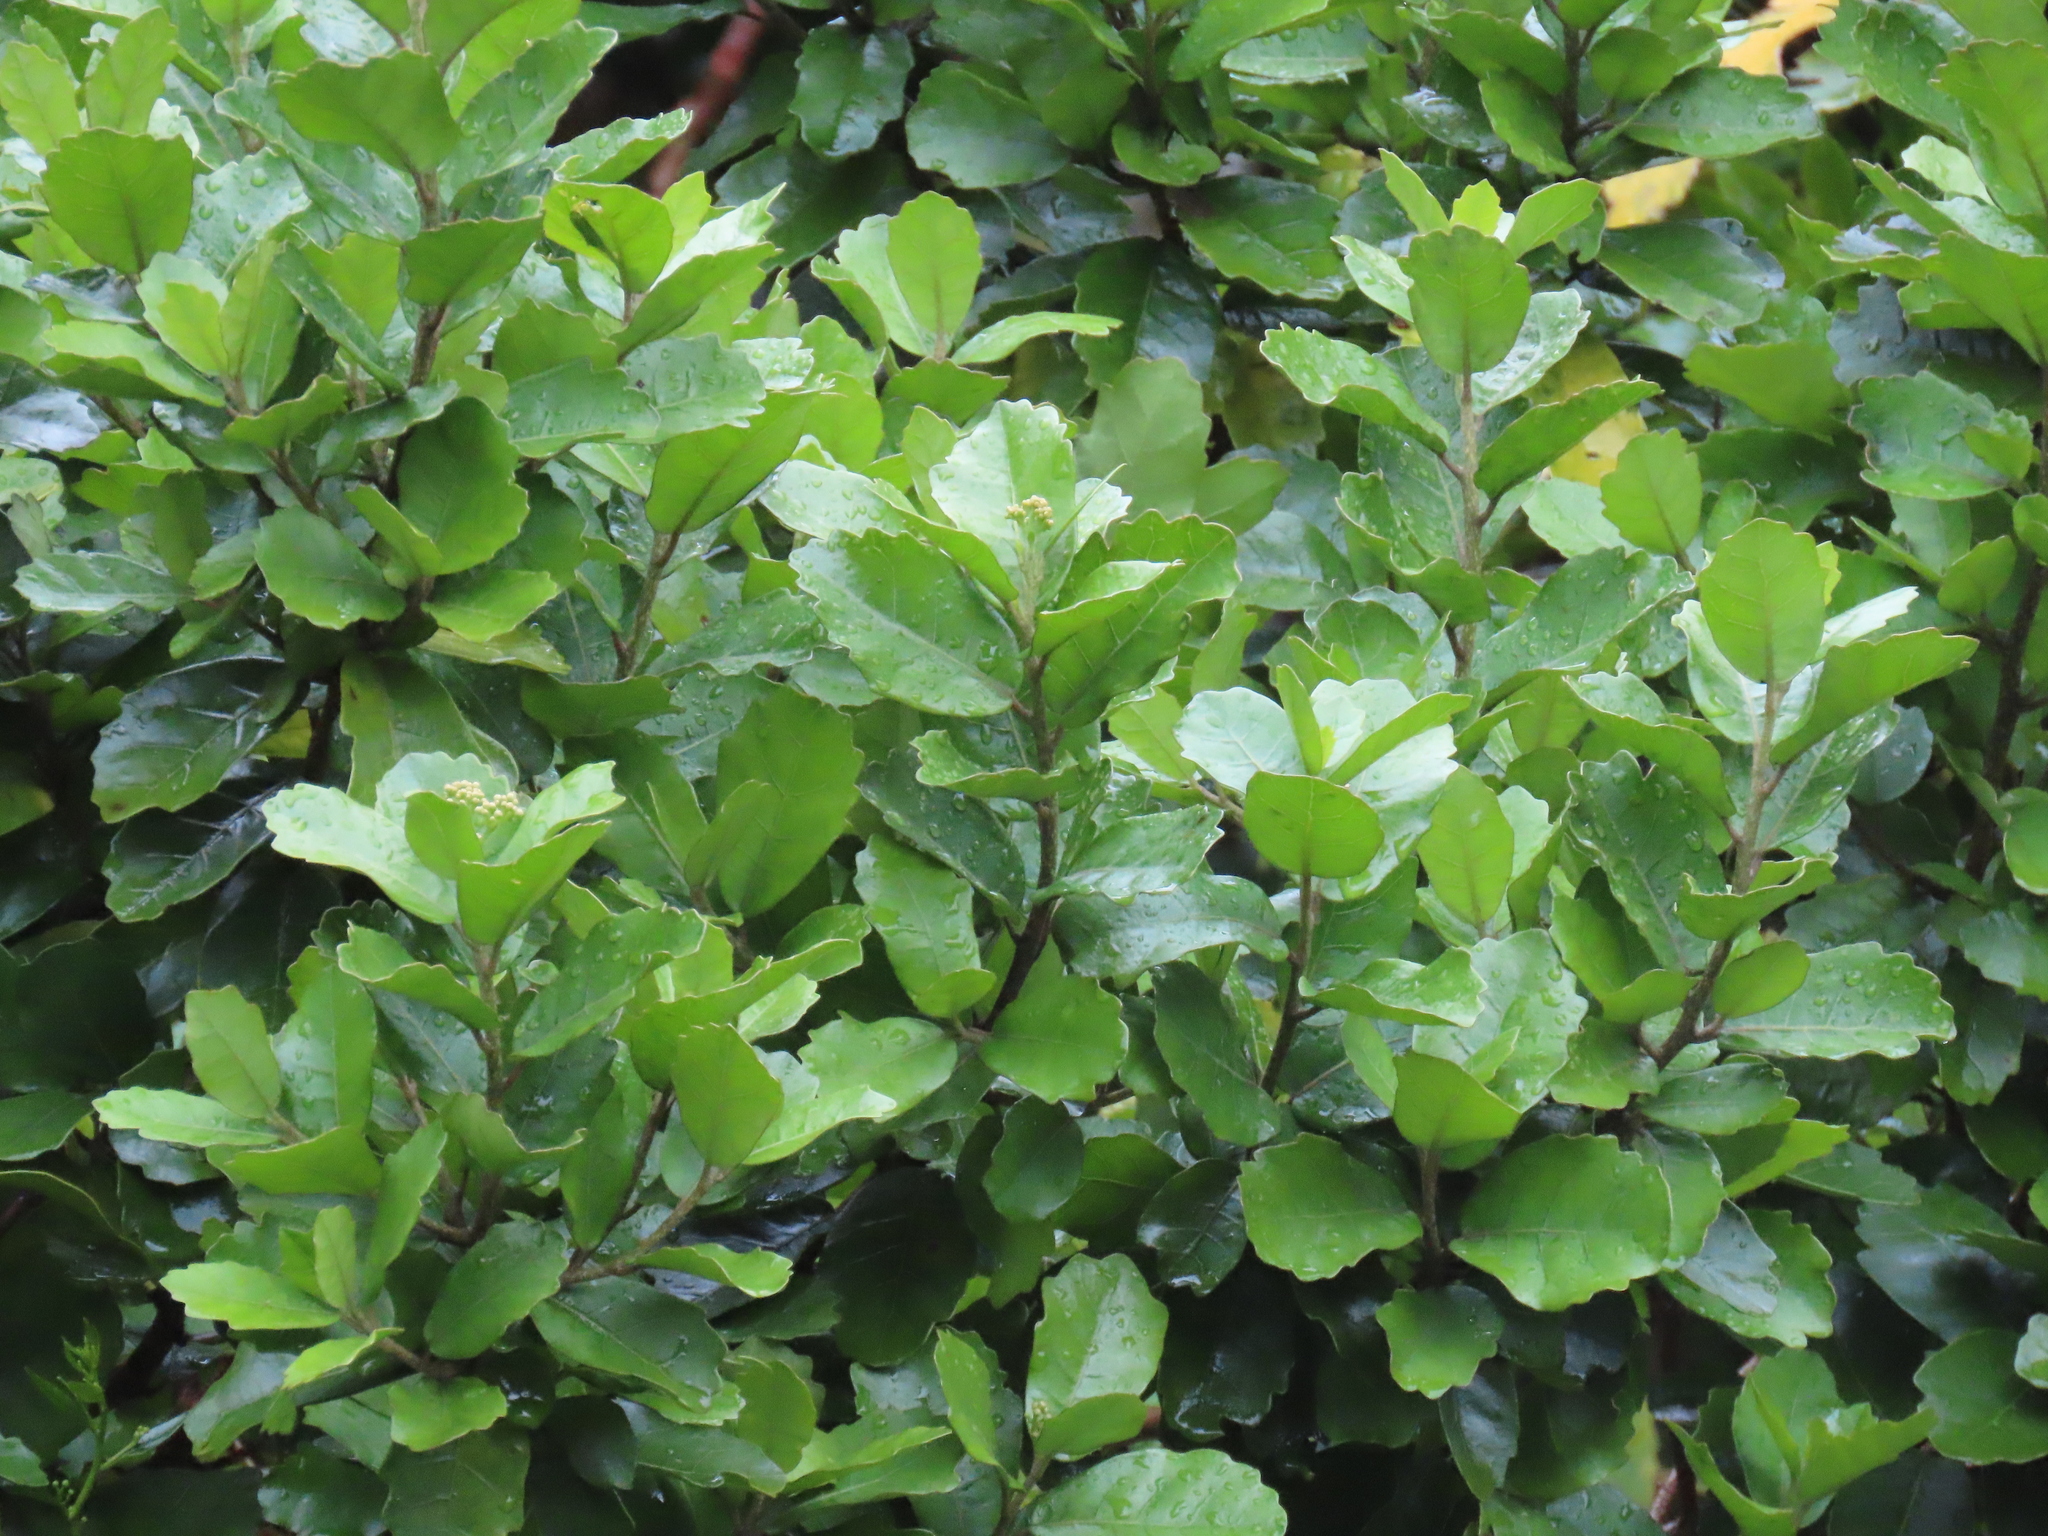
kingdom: Plantae
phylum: Tracheophyta
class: Magnoliopsida
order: Apiales
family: Pennantiaceae
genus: Pennantia
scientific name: Pennantia corymbosa
